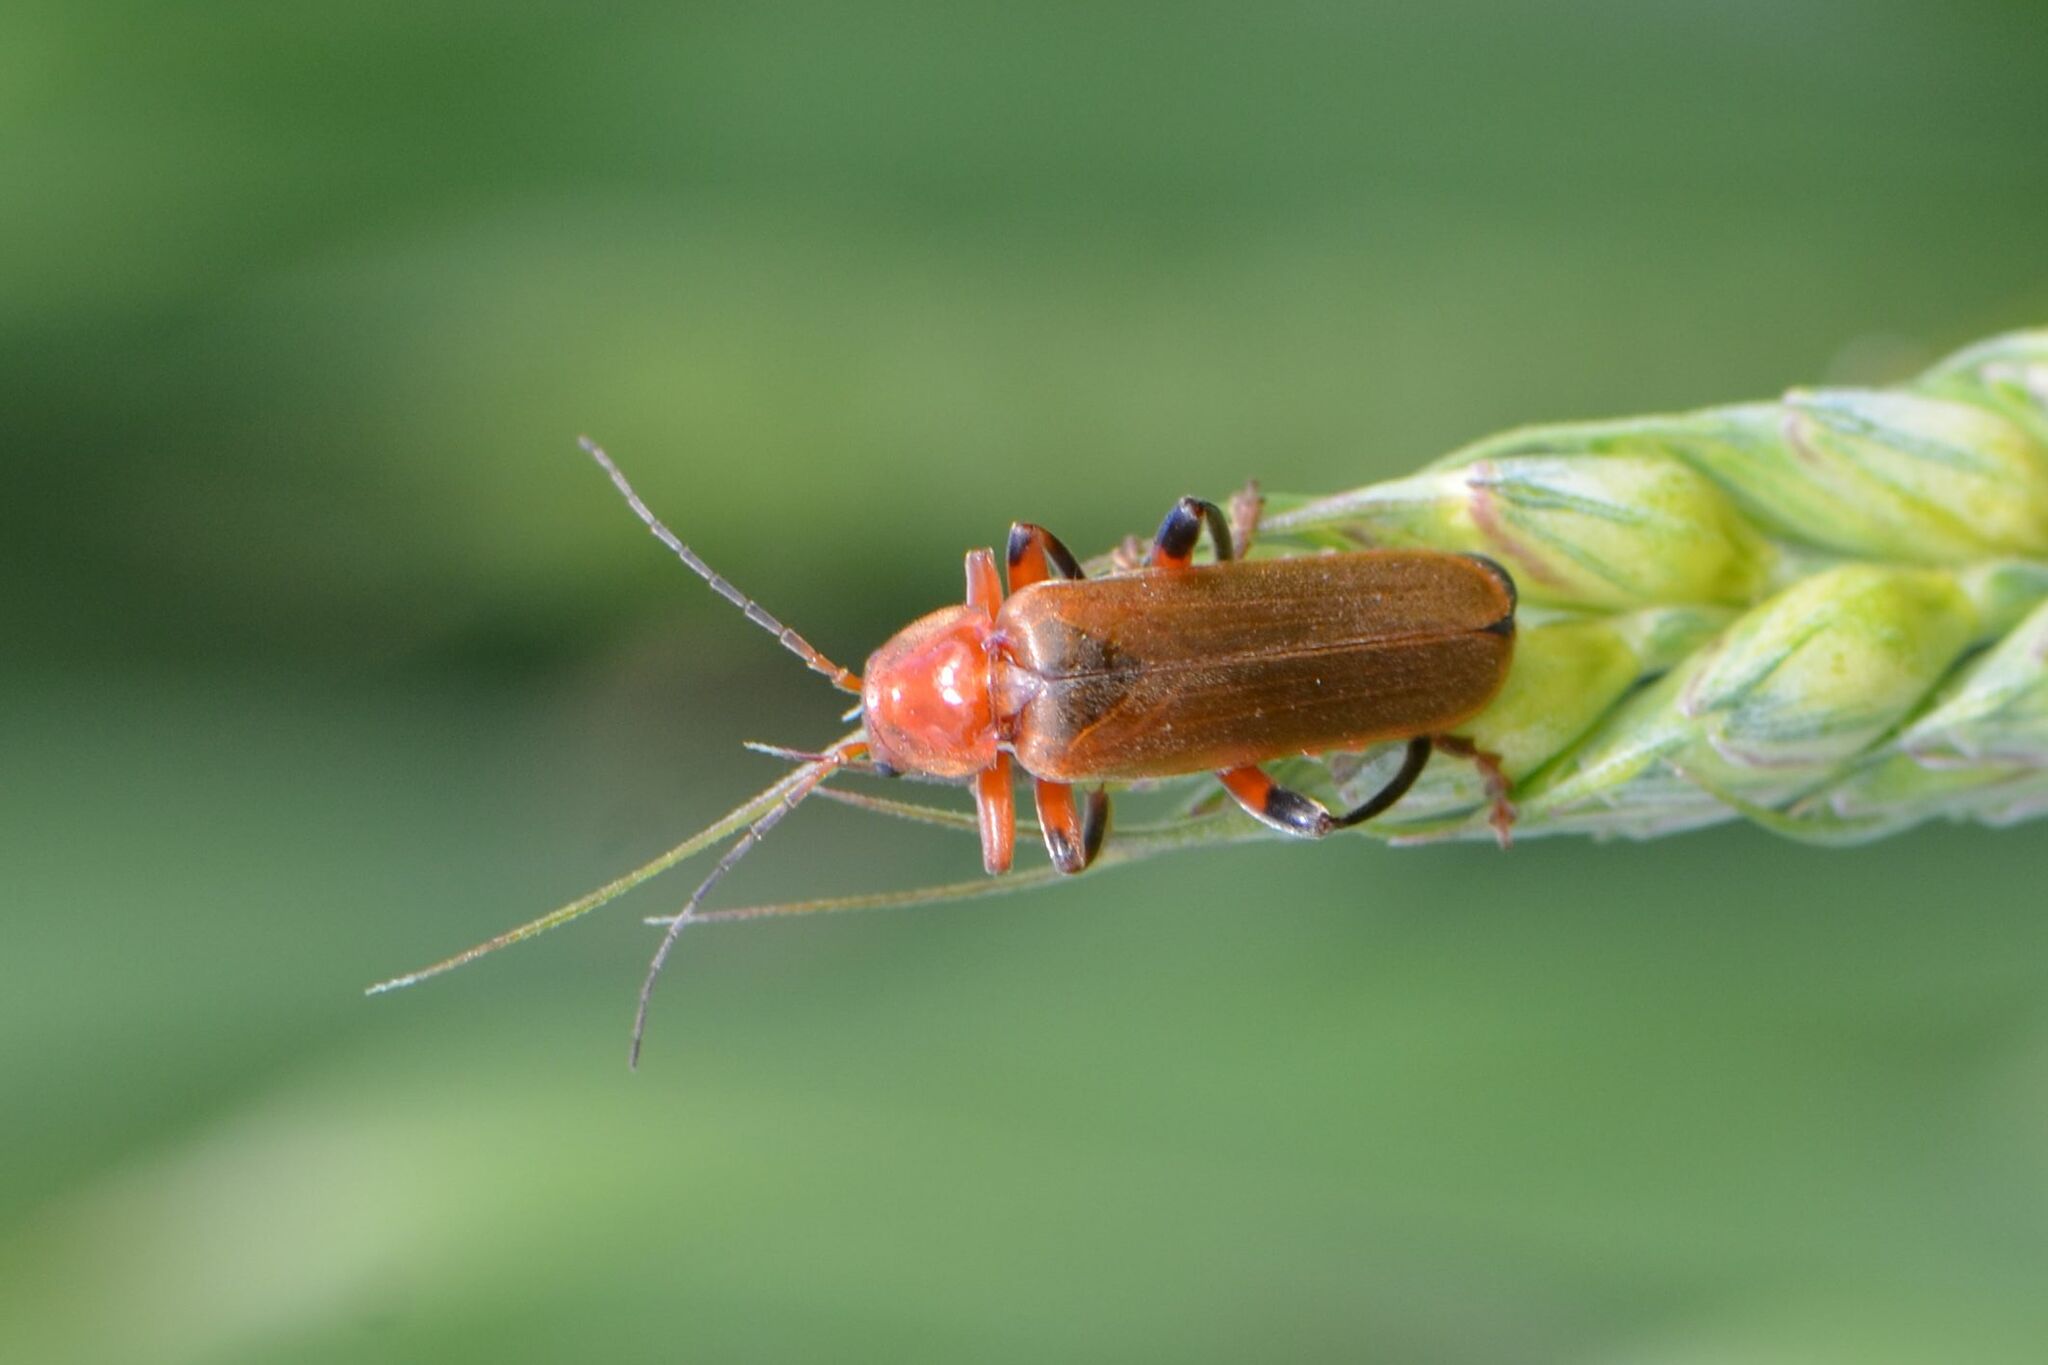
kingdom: Animalia
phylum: Arthropoda
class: Insecta
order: Coleoptera
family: Cantharidae
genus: Cantharis
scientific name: Cantharis livida
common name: Livid soldier beetle
